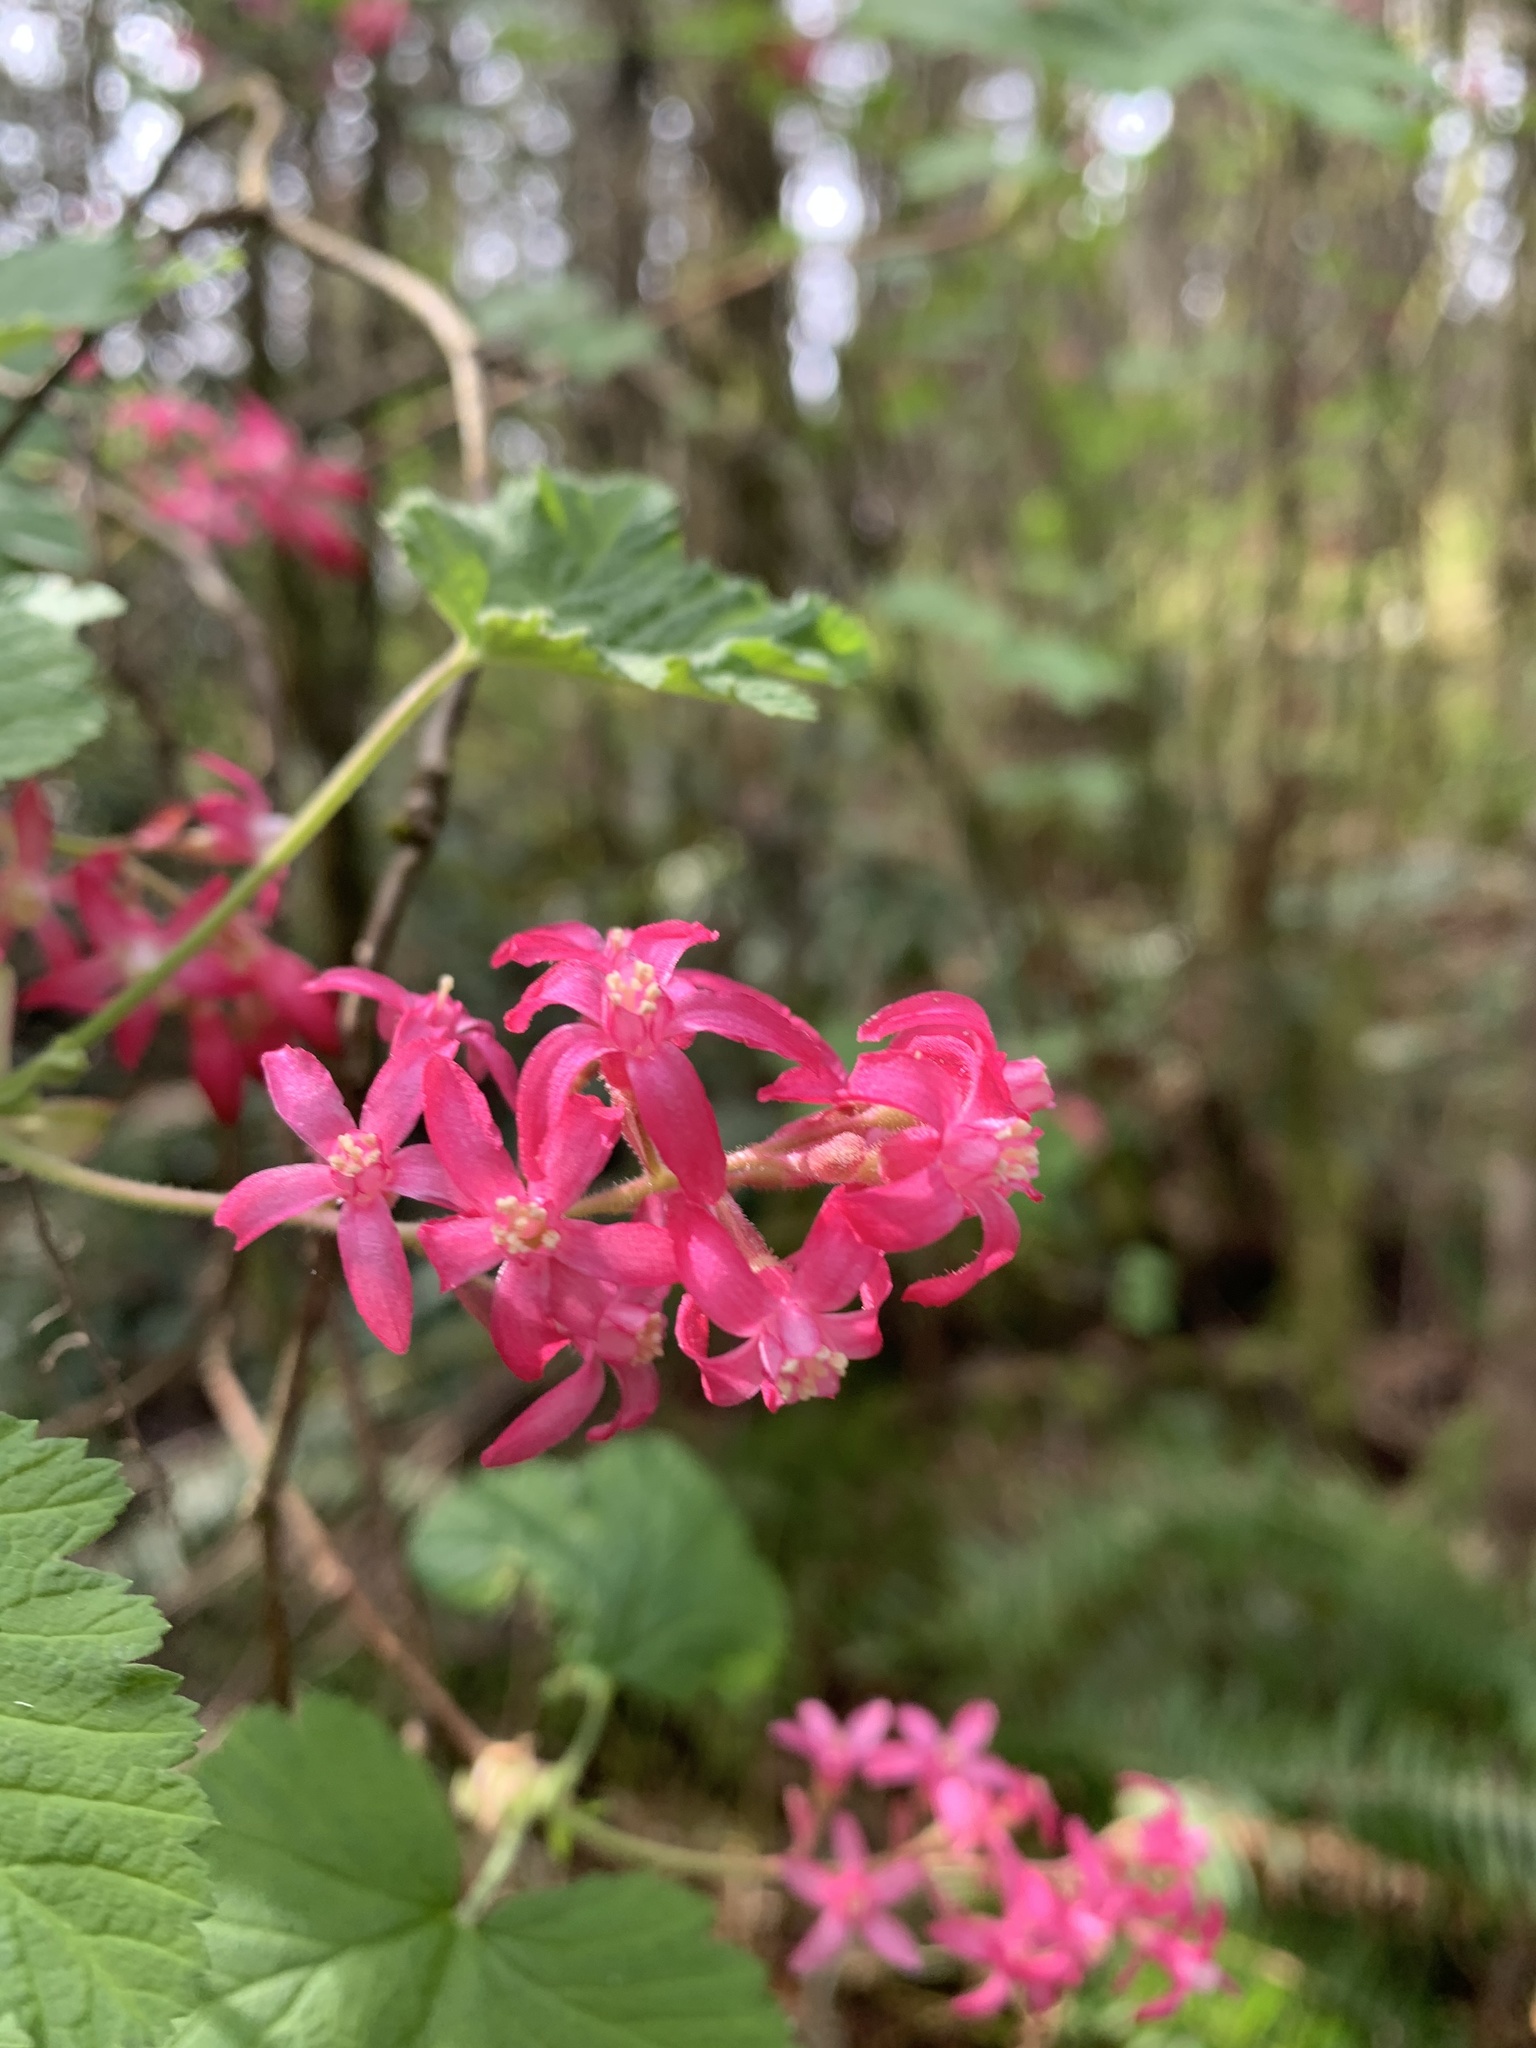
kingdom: Plantae
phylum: Tracheophyta
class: Magnoliopsida
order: Saxifragales
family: Grossulariaceae
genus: Ribes
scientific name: Ribes sanguineum
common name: Flowering currant
